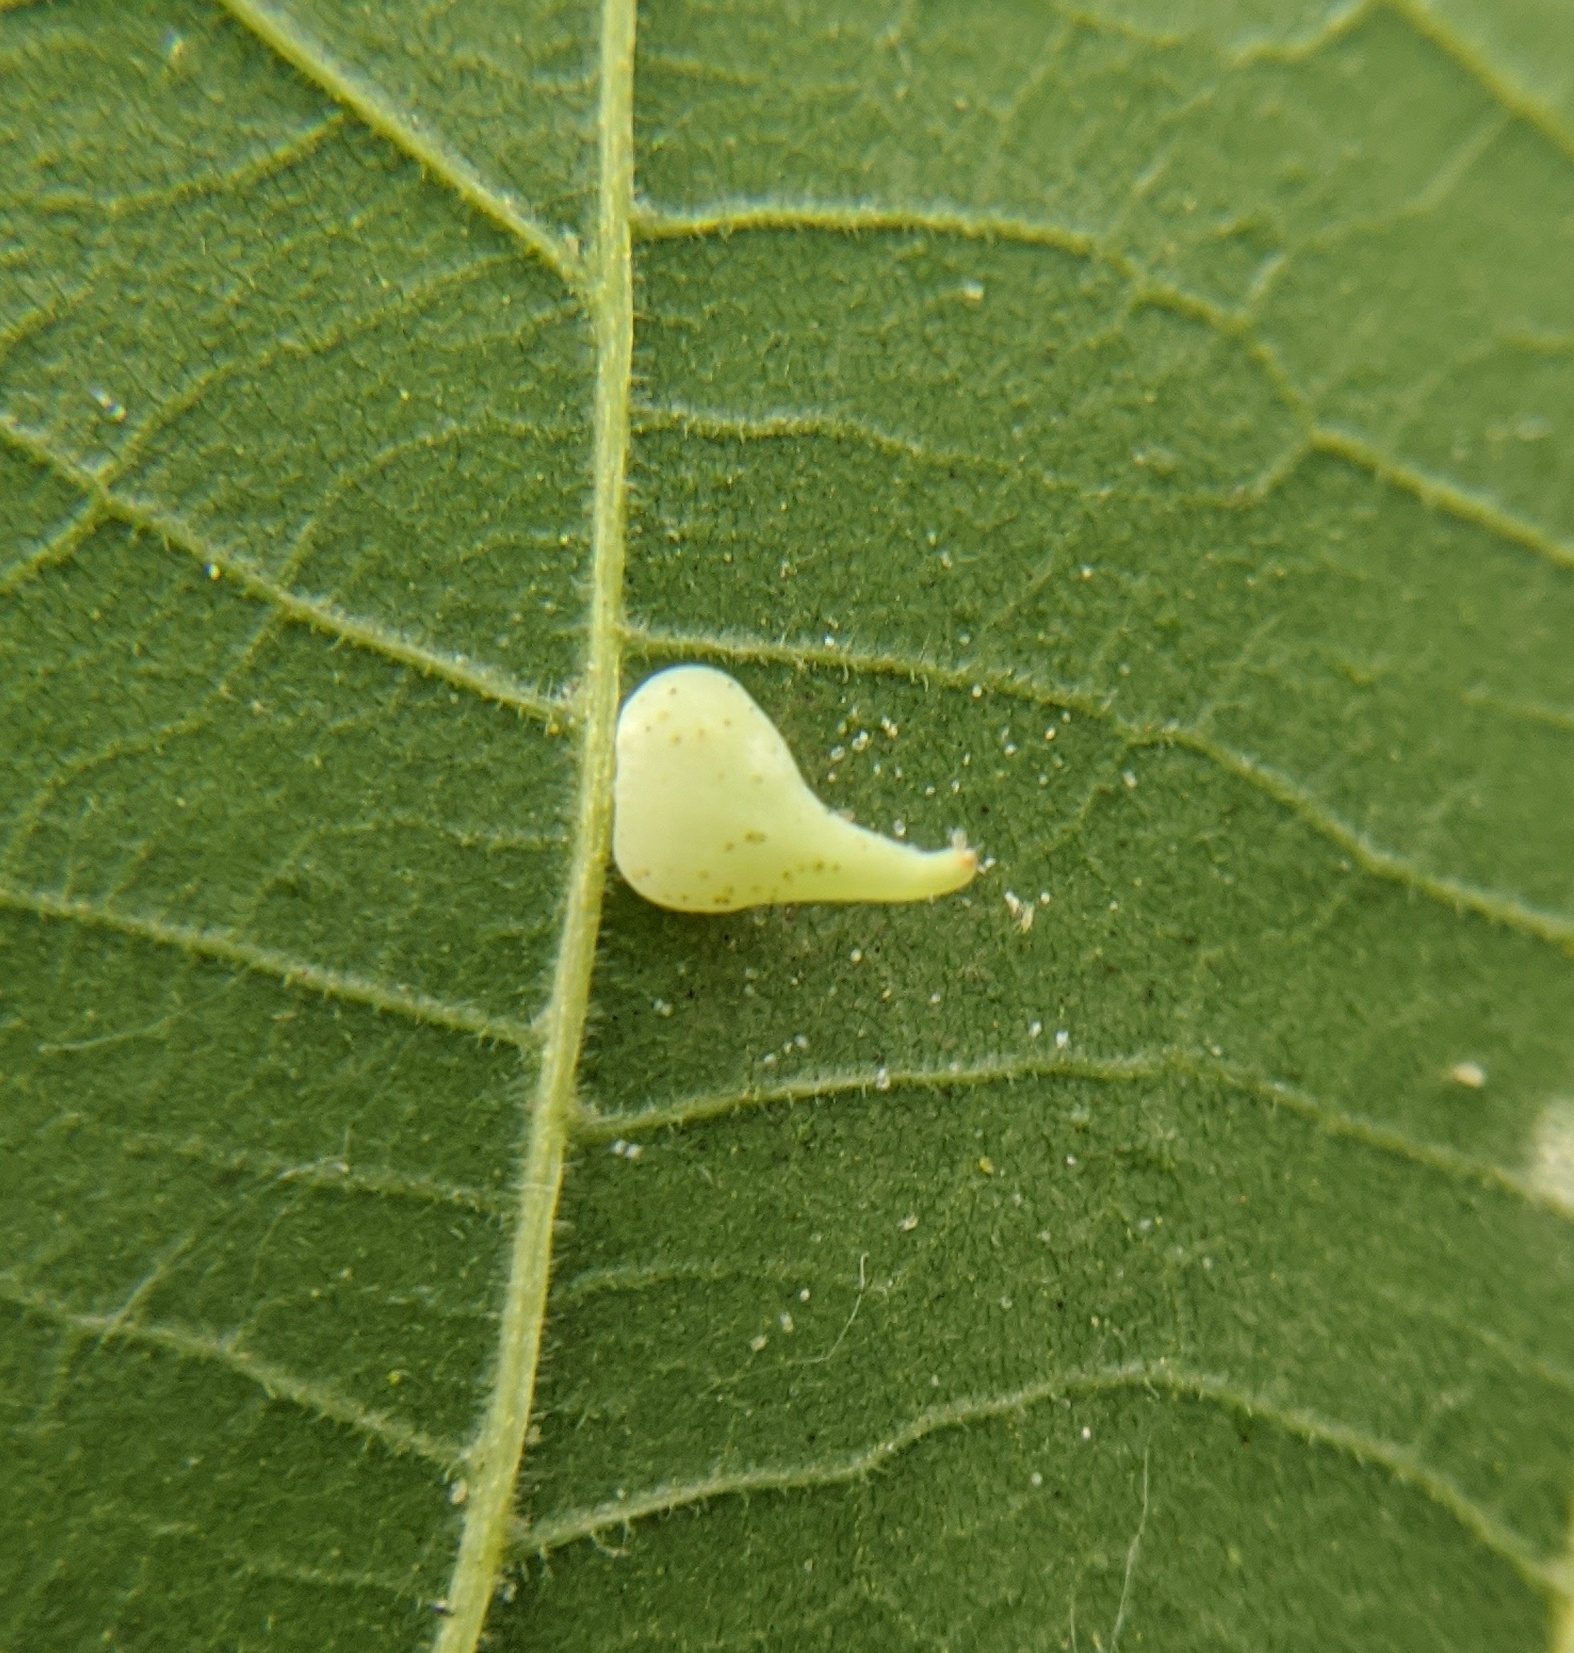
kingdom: Animalia
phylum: Arthropoda
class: Insecta
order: Diptera
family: Cecidomyiidae
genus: Caryomyia
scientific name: Caryomyia caryaecola
